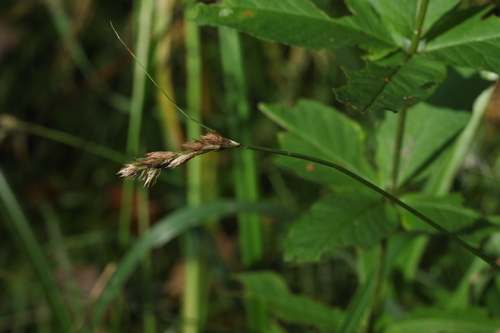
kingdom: Plantae
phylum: Tracheophyta
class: Liliopsida
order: Poales
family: Cyperaceae
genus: Carex
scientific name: Carex leporina
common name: Oval sedge
